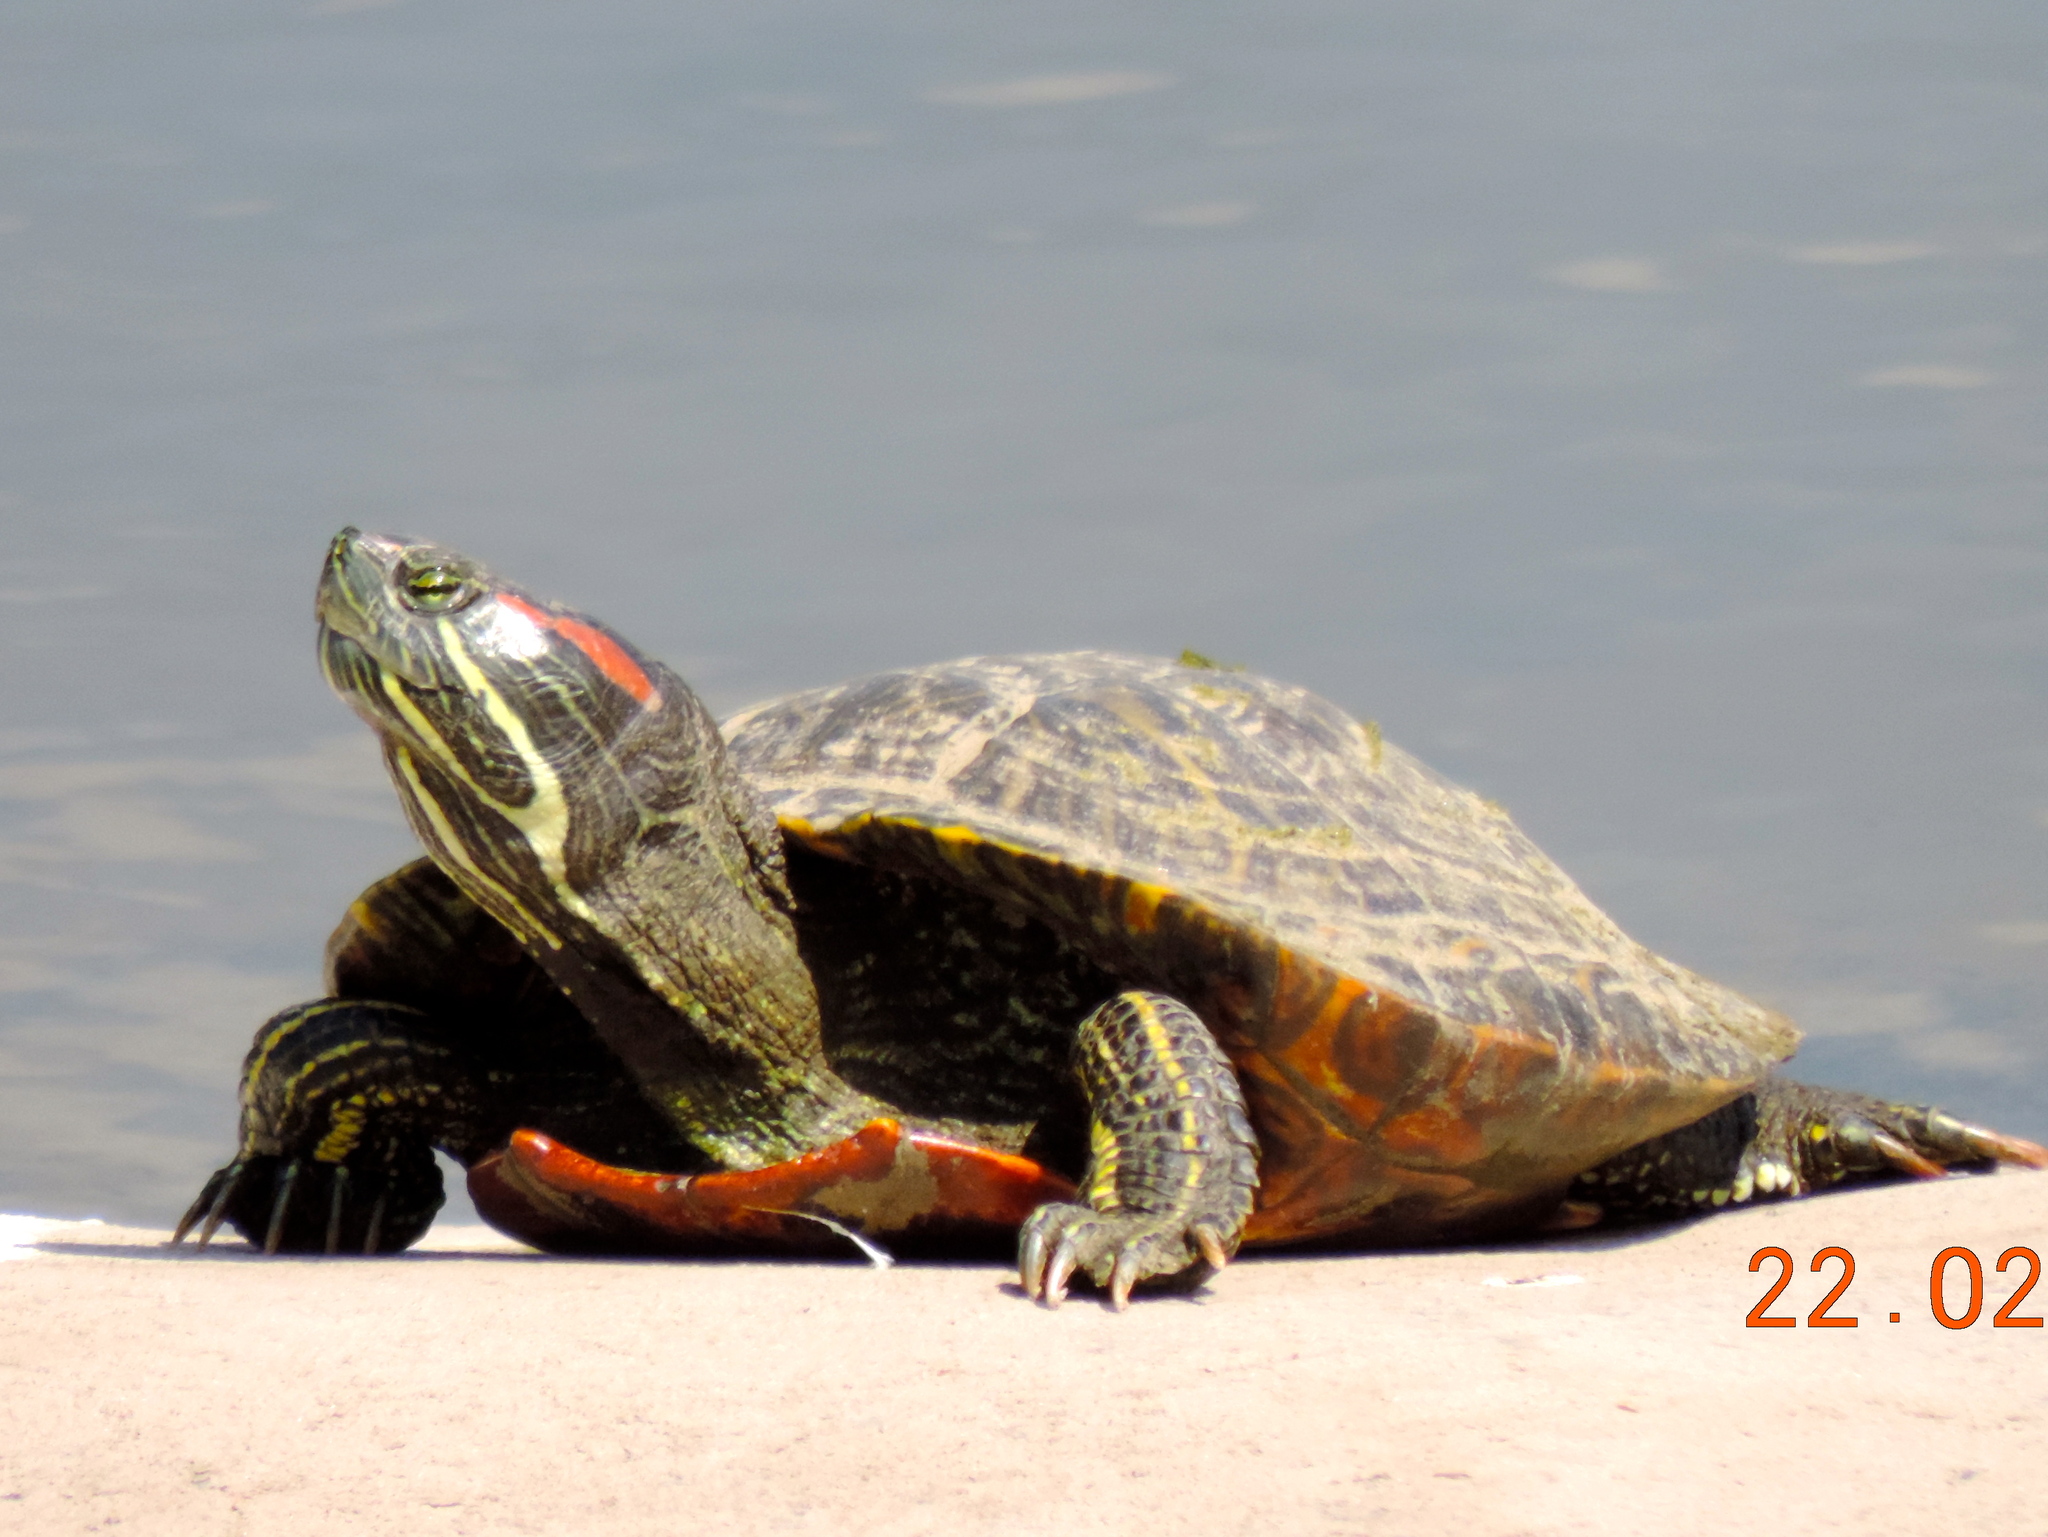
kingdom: Animalia
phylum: Chordata
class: Testudines
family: Emydidae
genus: Trachemys
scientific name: Trachemys scripta
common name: Slider
